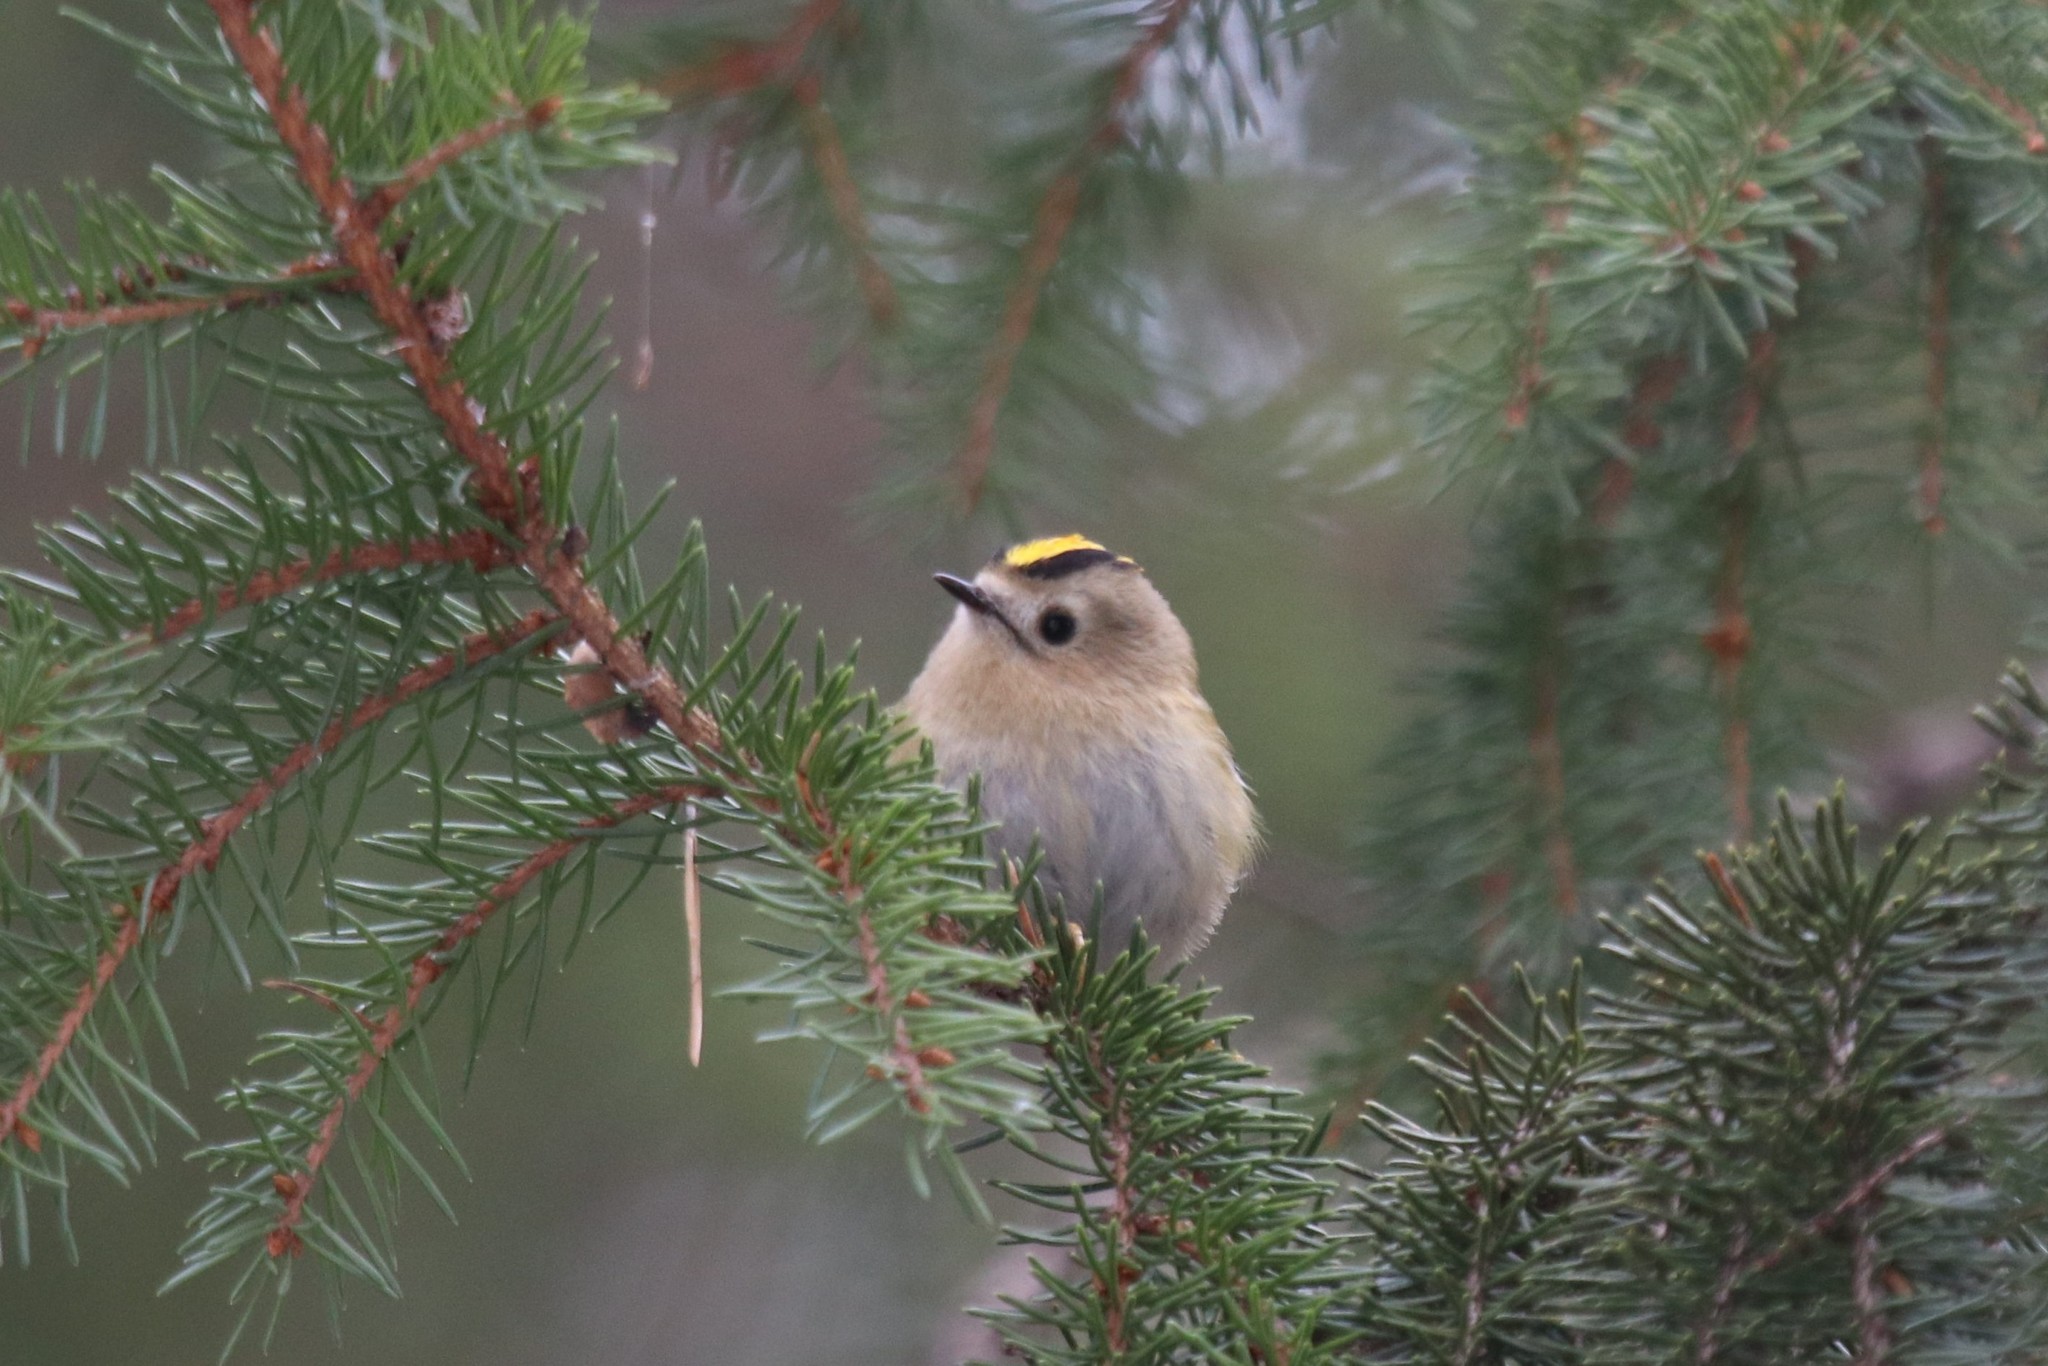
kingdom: Animalia
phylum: Chordata
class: Aves
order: Passeriformes
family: Regulidae
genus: Regulus
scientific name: Regulus regulus
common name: Goldcrest
